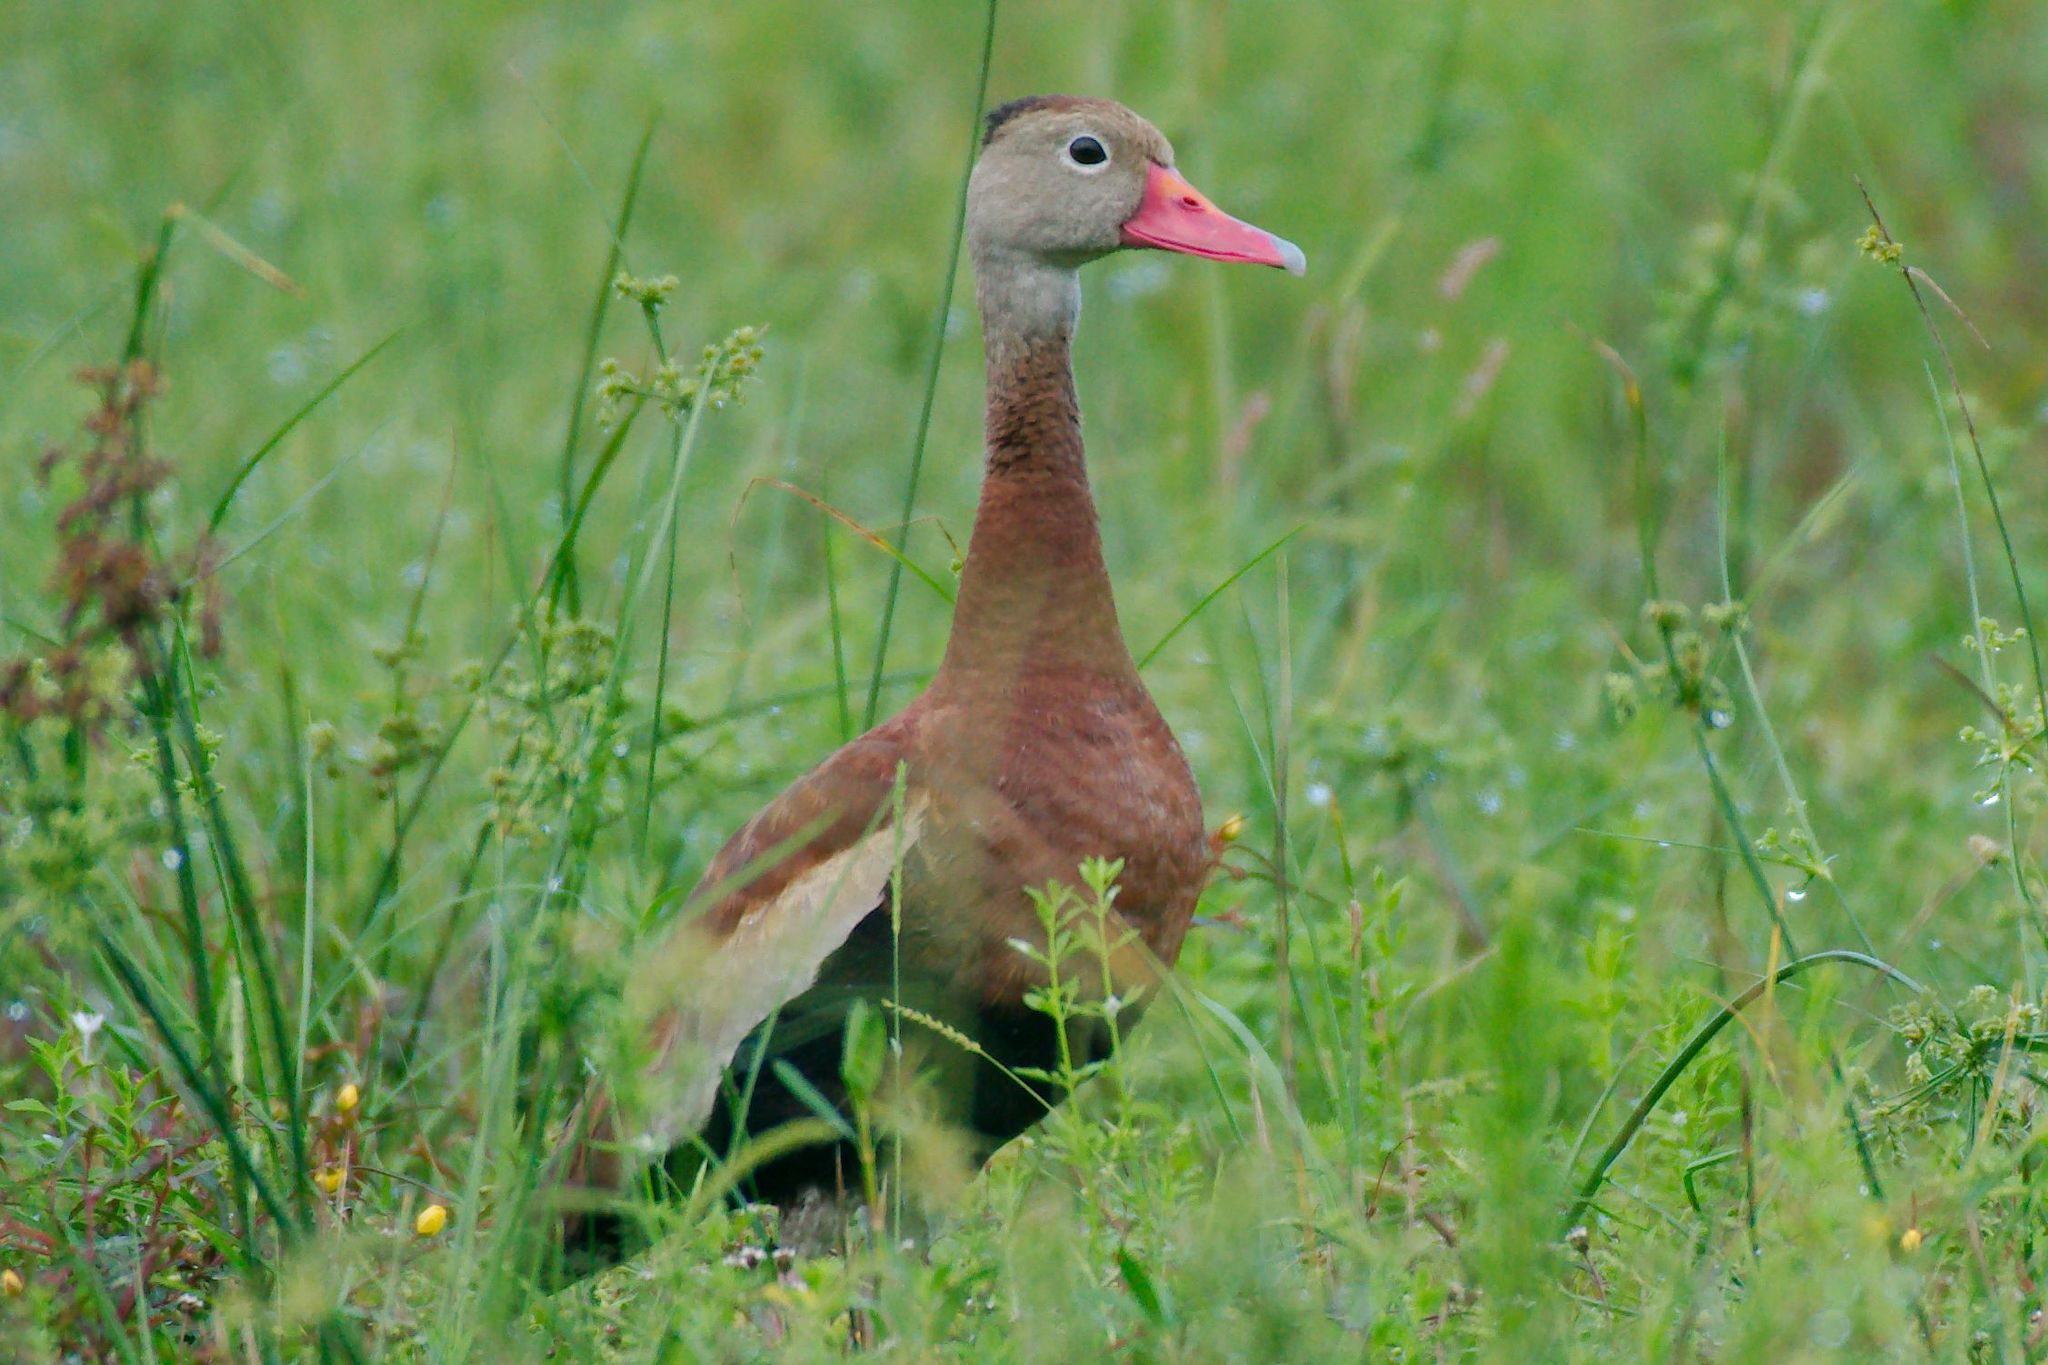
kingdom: Animalia
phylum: Chordata
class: Aves
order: Anseriformes
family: Anatidae
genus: Dendrocygna
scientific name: Dendrocygna autumnalis
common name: Black-bellied whistling duck
